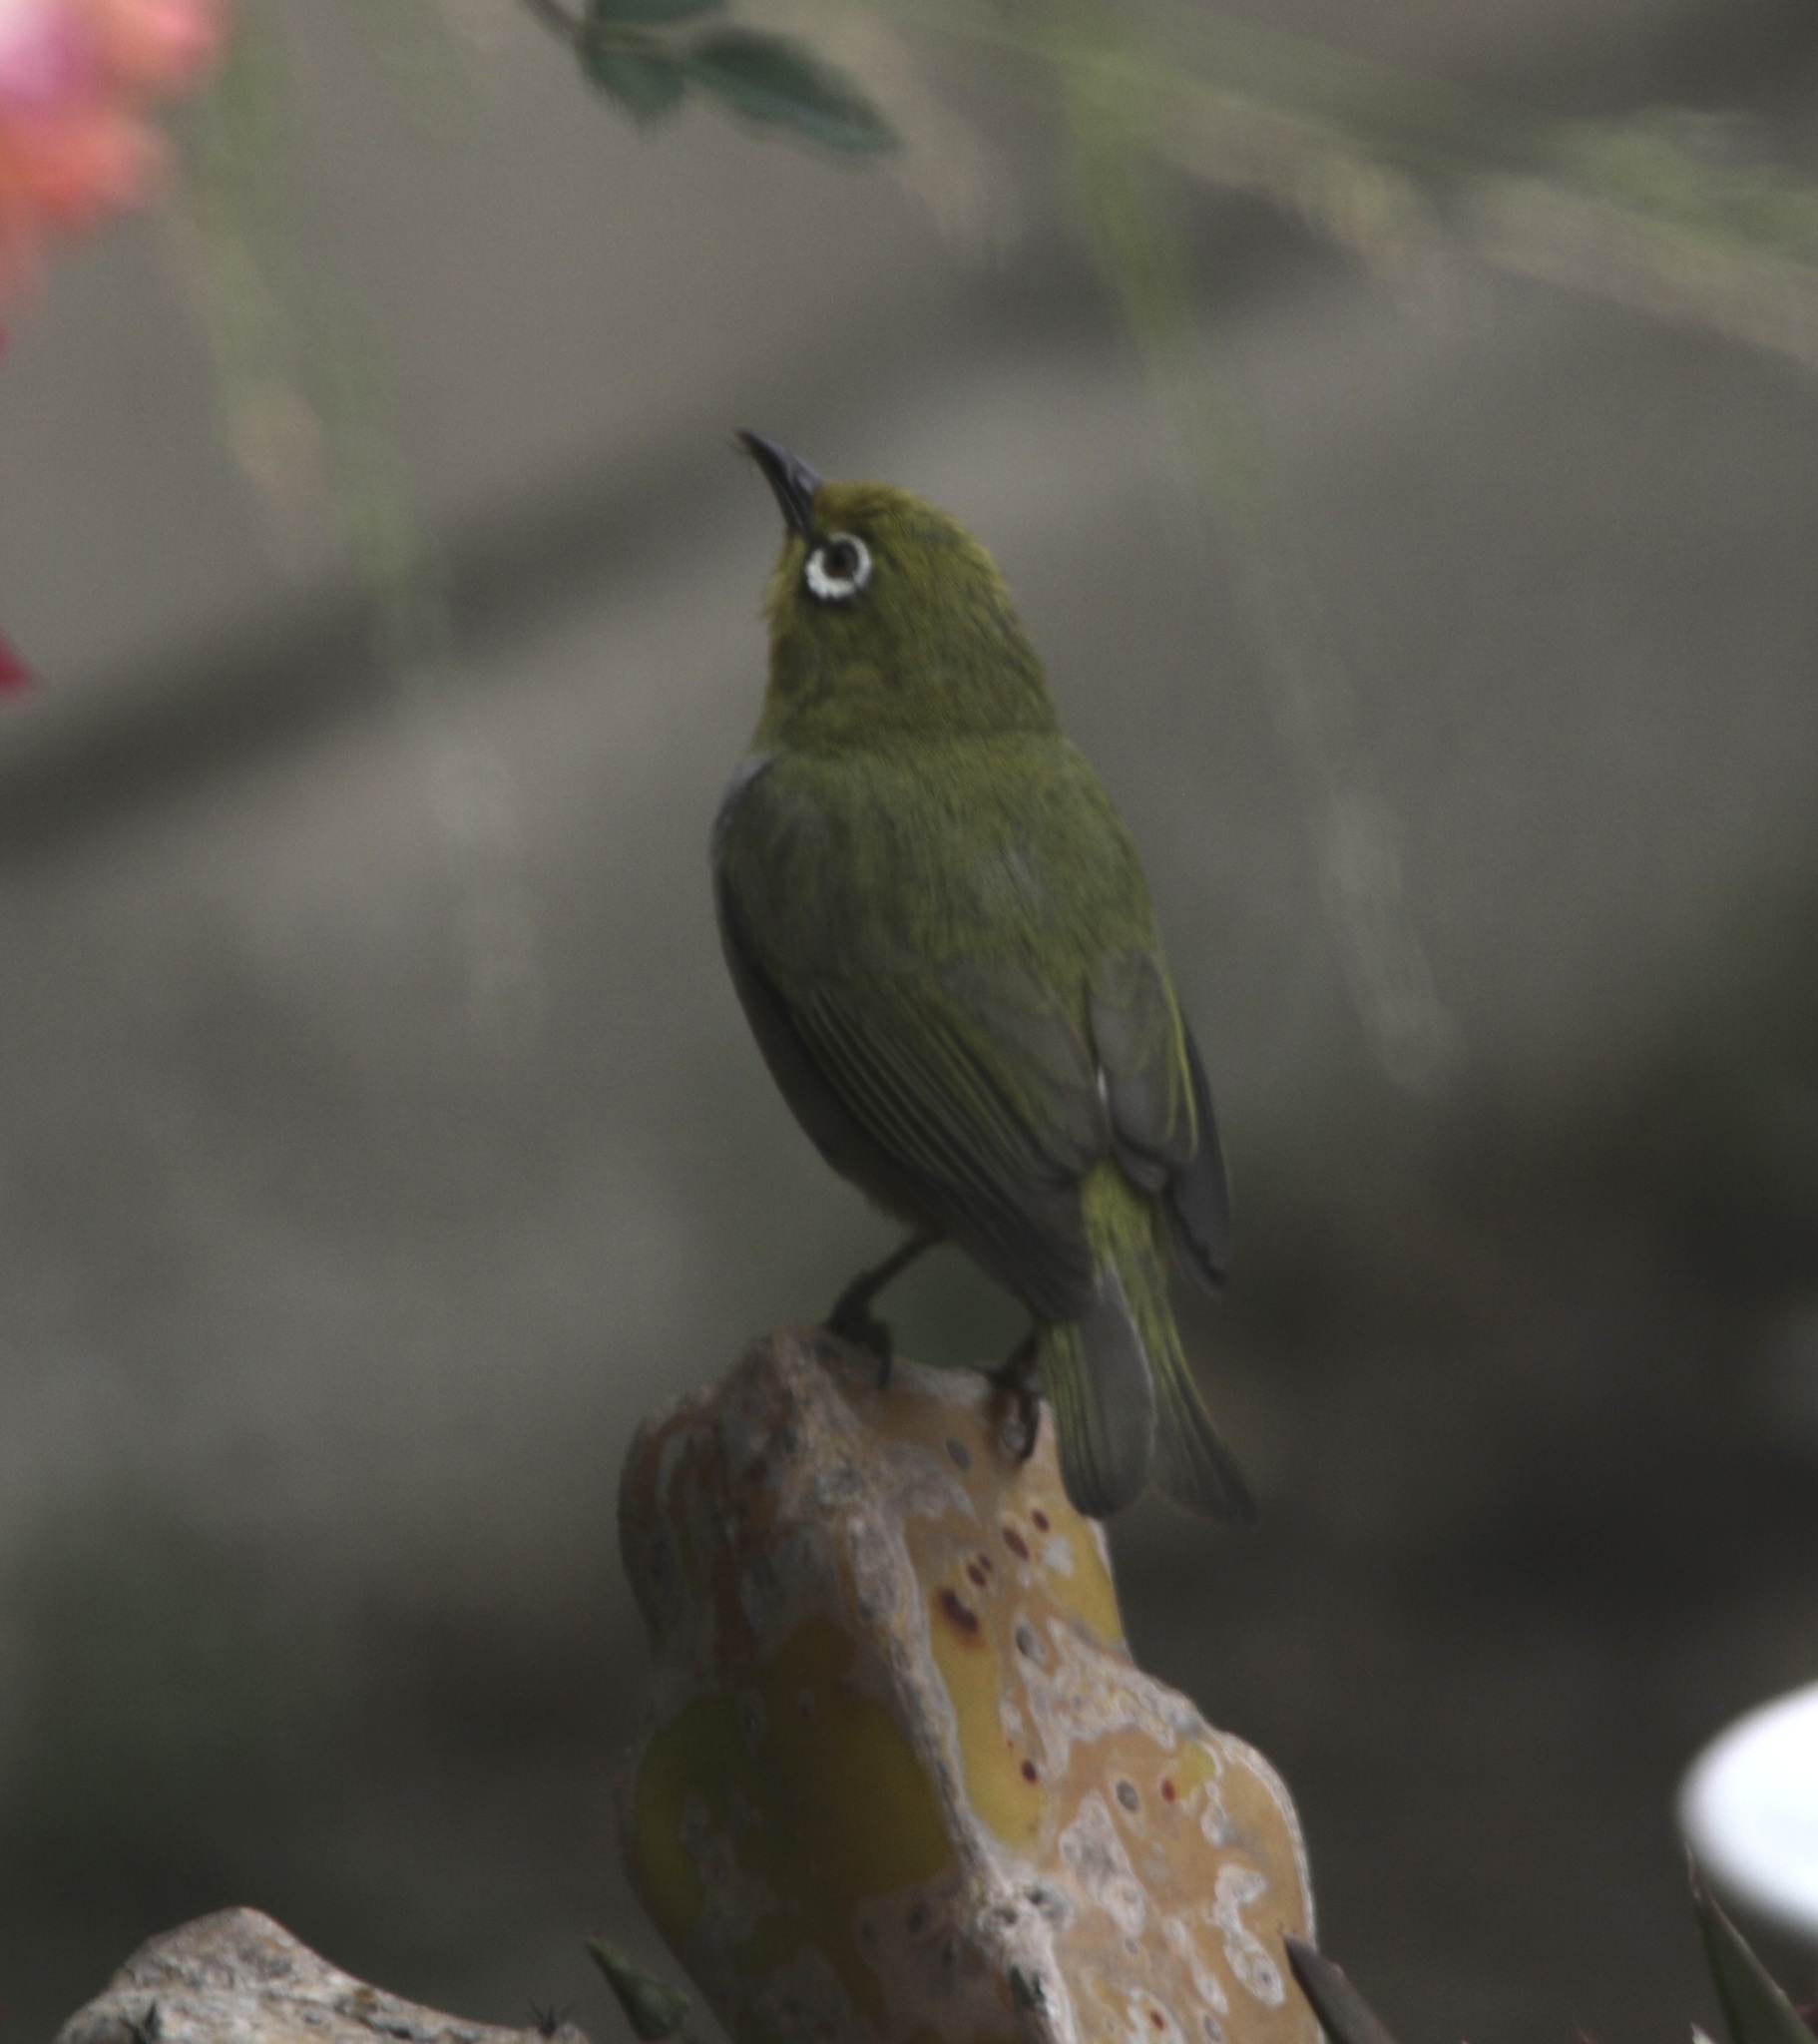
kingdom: Animalia
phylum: Chordata
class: Aves
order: Passeriformes
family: Zosteropidae
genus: Zosterops
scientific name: Zosterops simplex
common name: Swinhoe's white-eye
